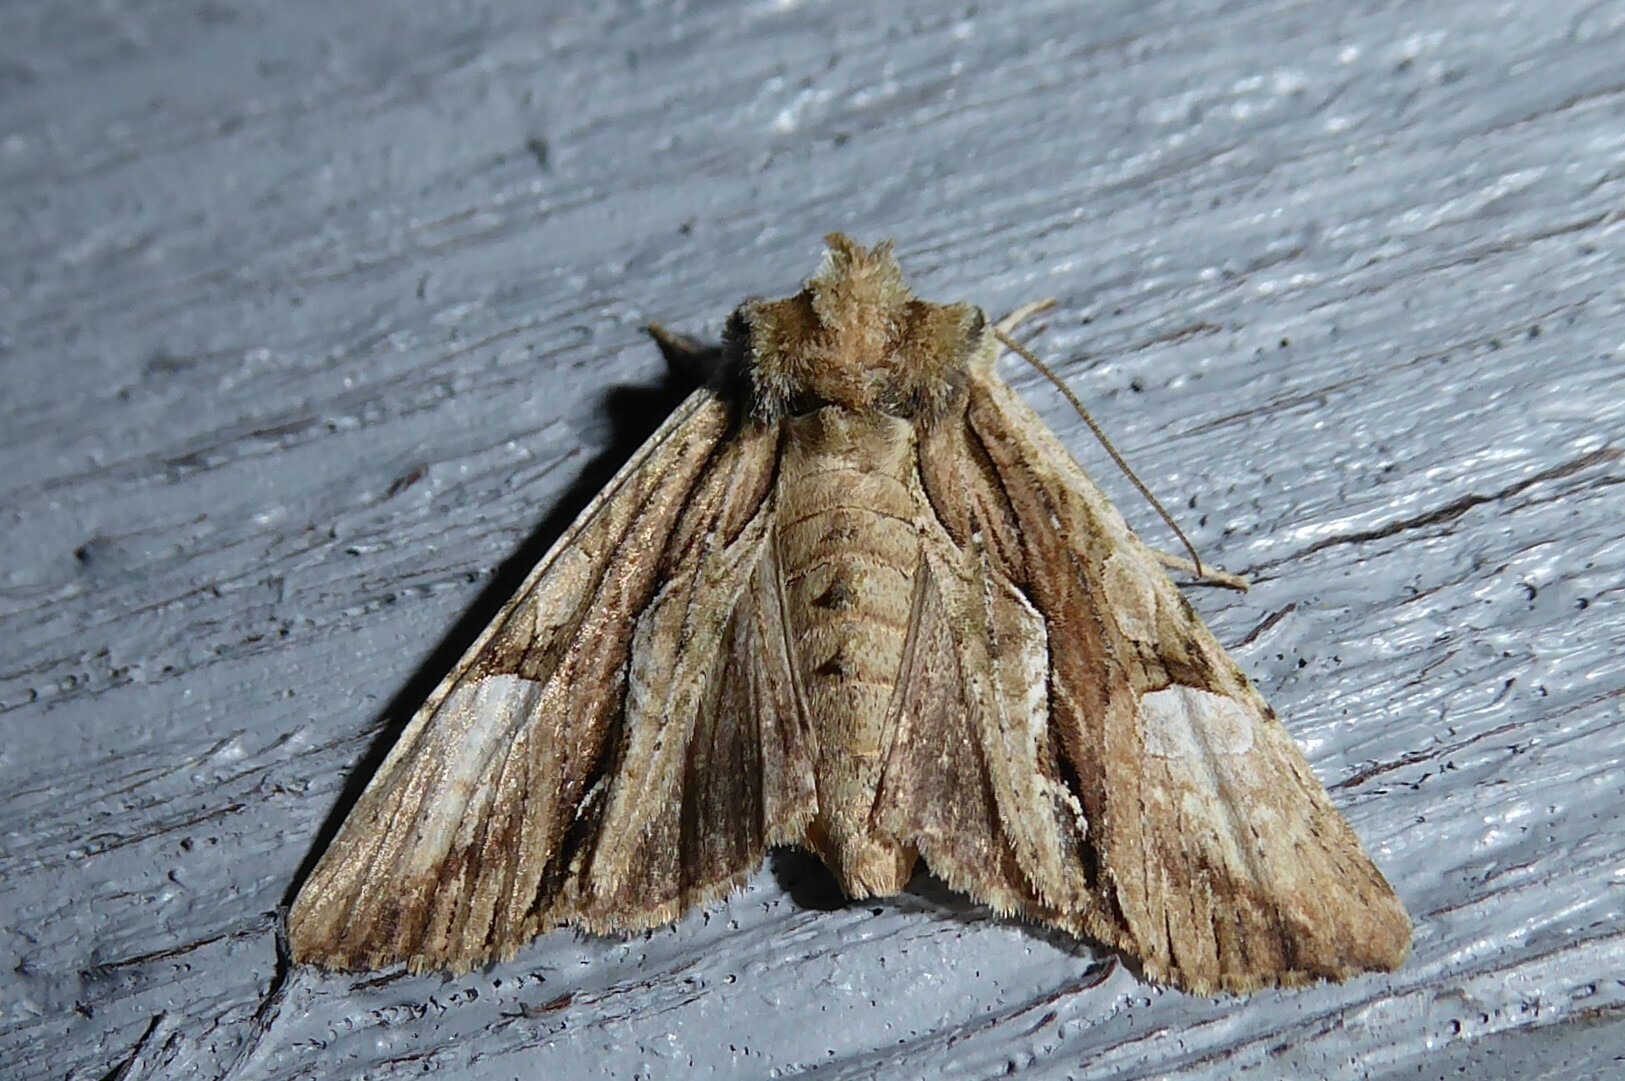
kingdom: Animalia
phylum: Arthropoda
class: Insecta
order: Lepidoptera
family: Noctuidae
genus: Meterana
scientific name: Meterana decorata
